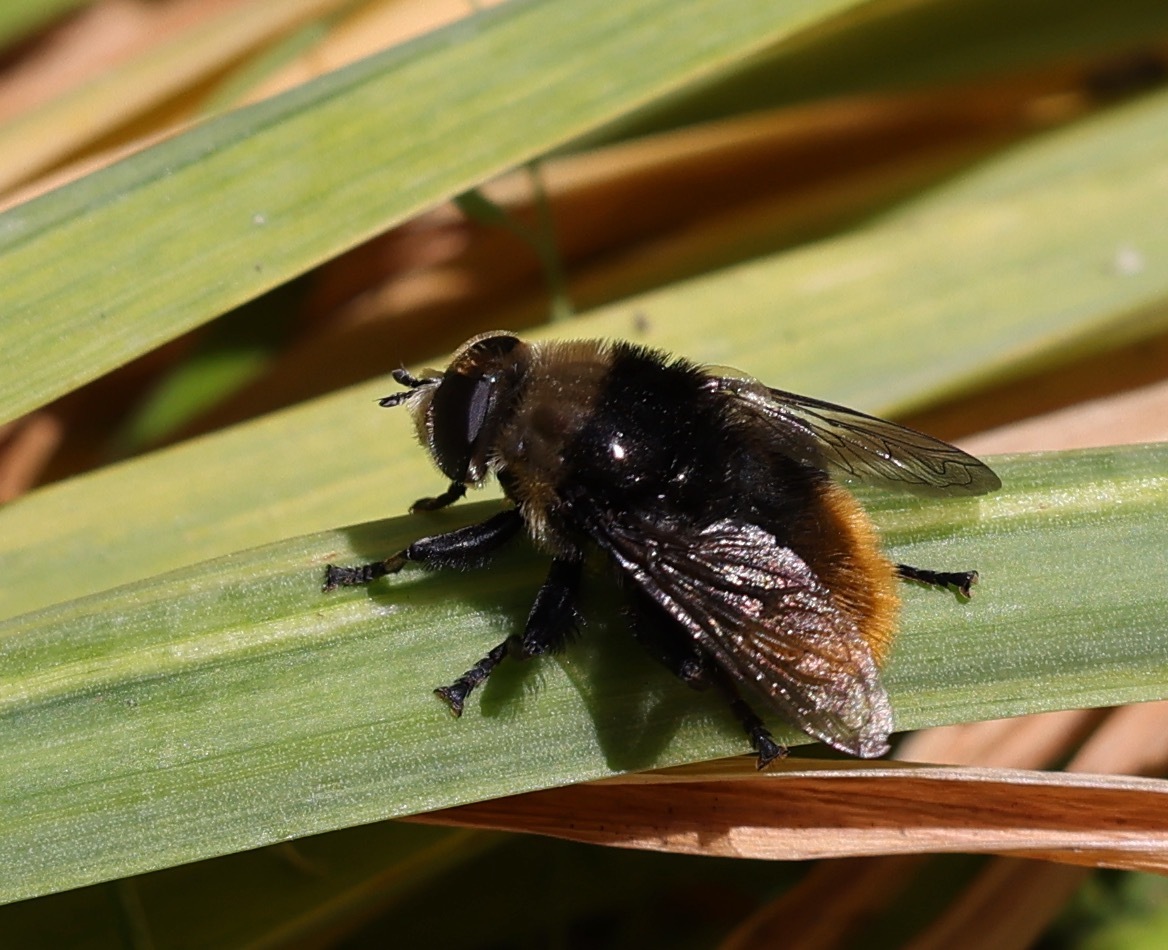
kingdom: Animalia
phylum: Arthropoda
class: Insecta
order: Diptera
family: Syrphidae
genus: Merodon
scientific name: Merodon equestris
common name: Greater bulb-fly
